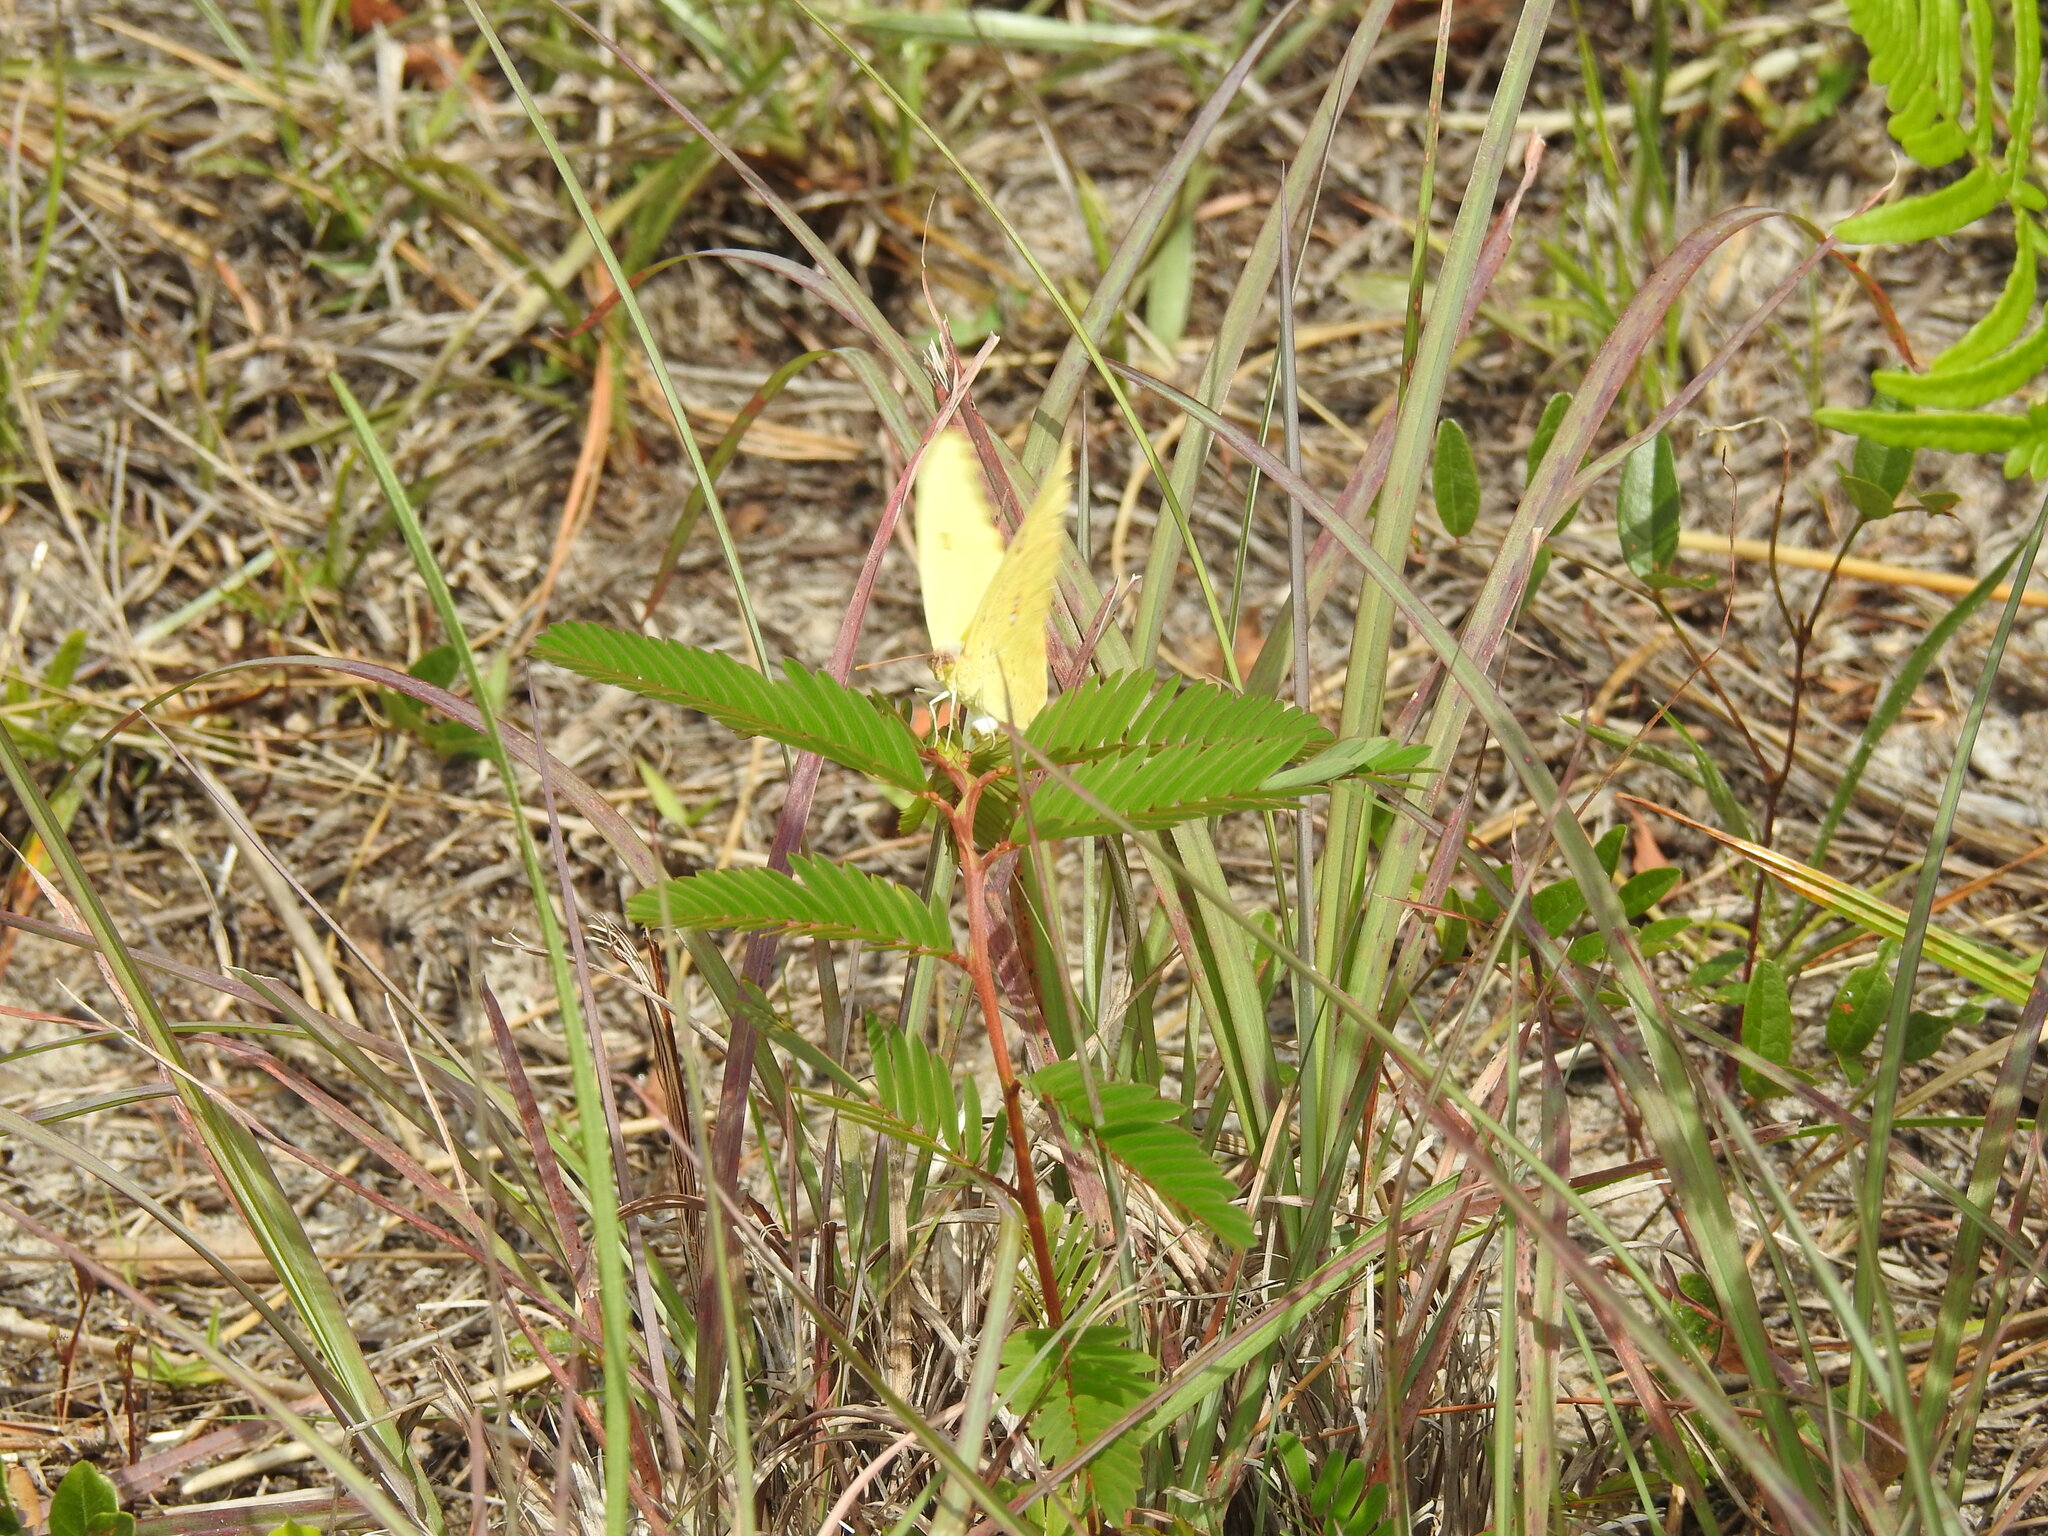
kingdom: Animalia
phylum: Arthropoda
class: Insecta
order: Lepidoptera
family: Pieridae
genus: Phoebis
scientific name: Phoebis sennae
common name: Cloudless sulphur
